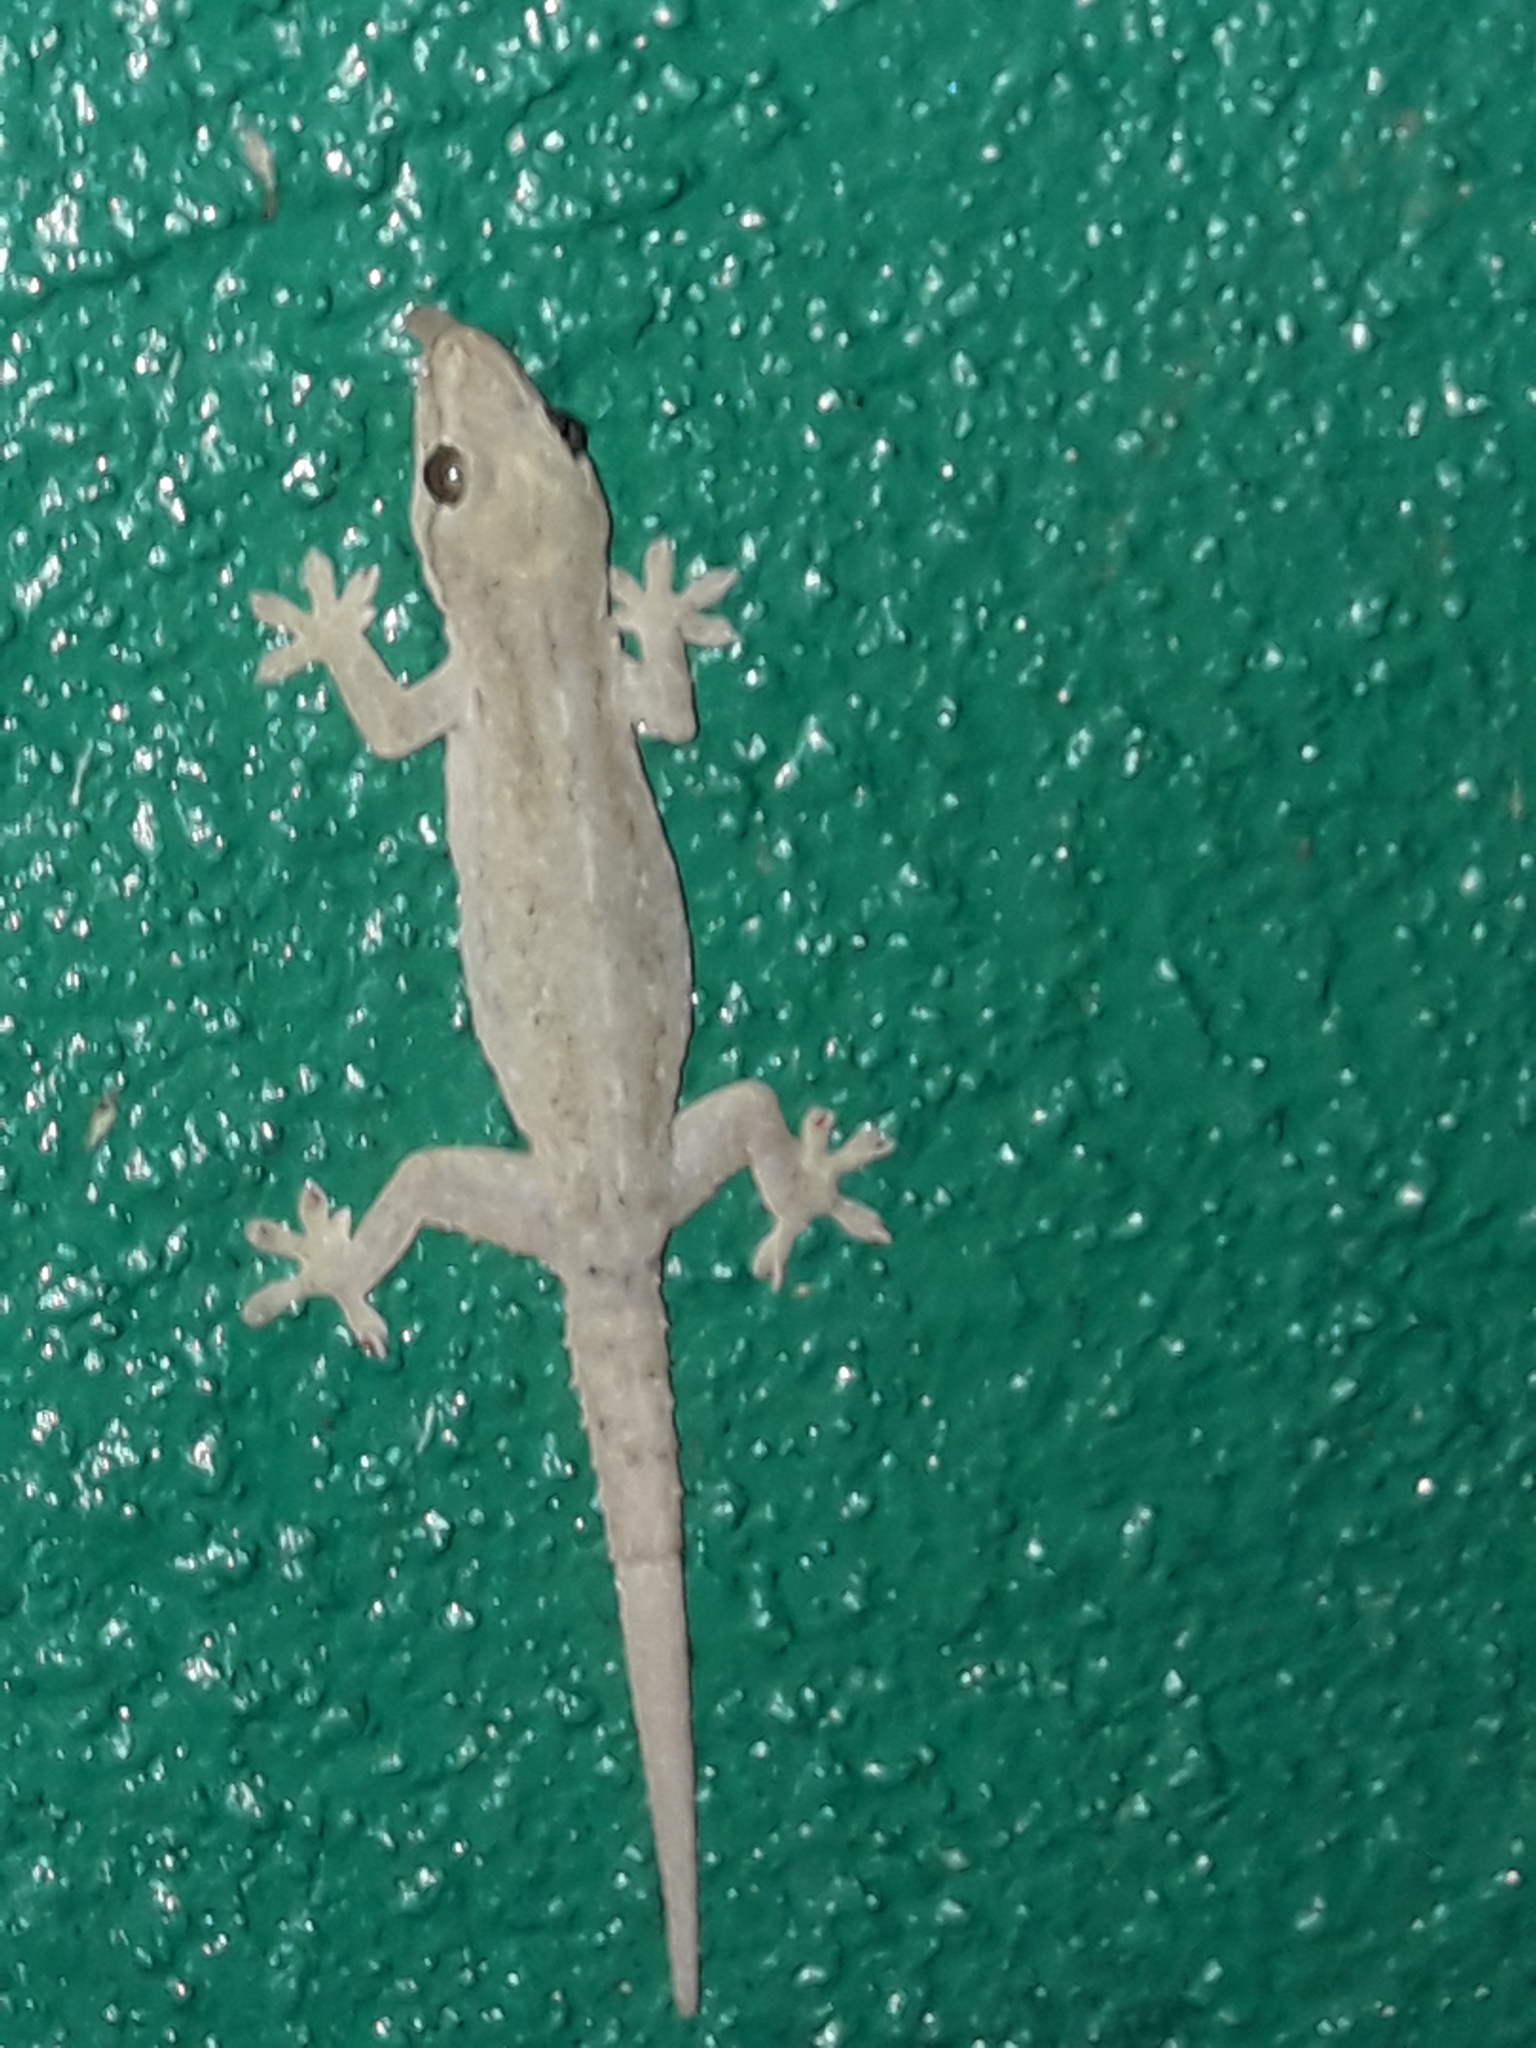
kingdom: Animalia
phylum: Chordata
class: Squamata
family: Gekkonidae
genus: Hemidactylus
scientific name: Hemidactylus frenatus
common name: Common house gecko
